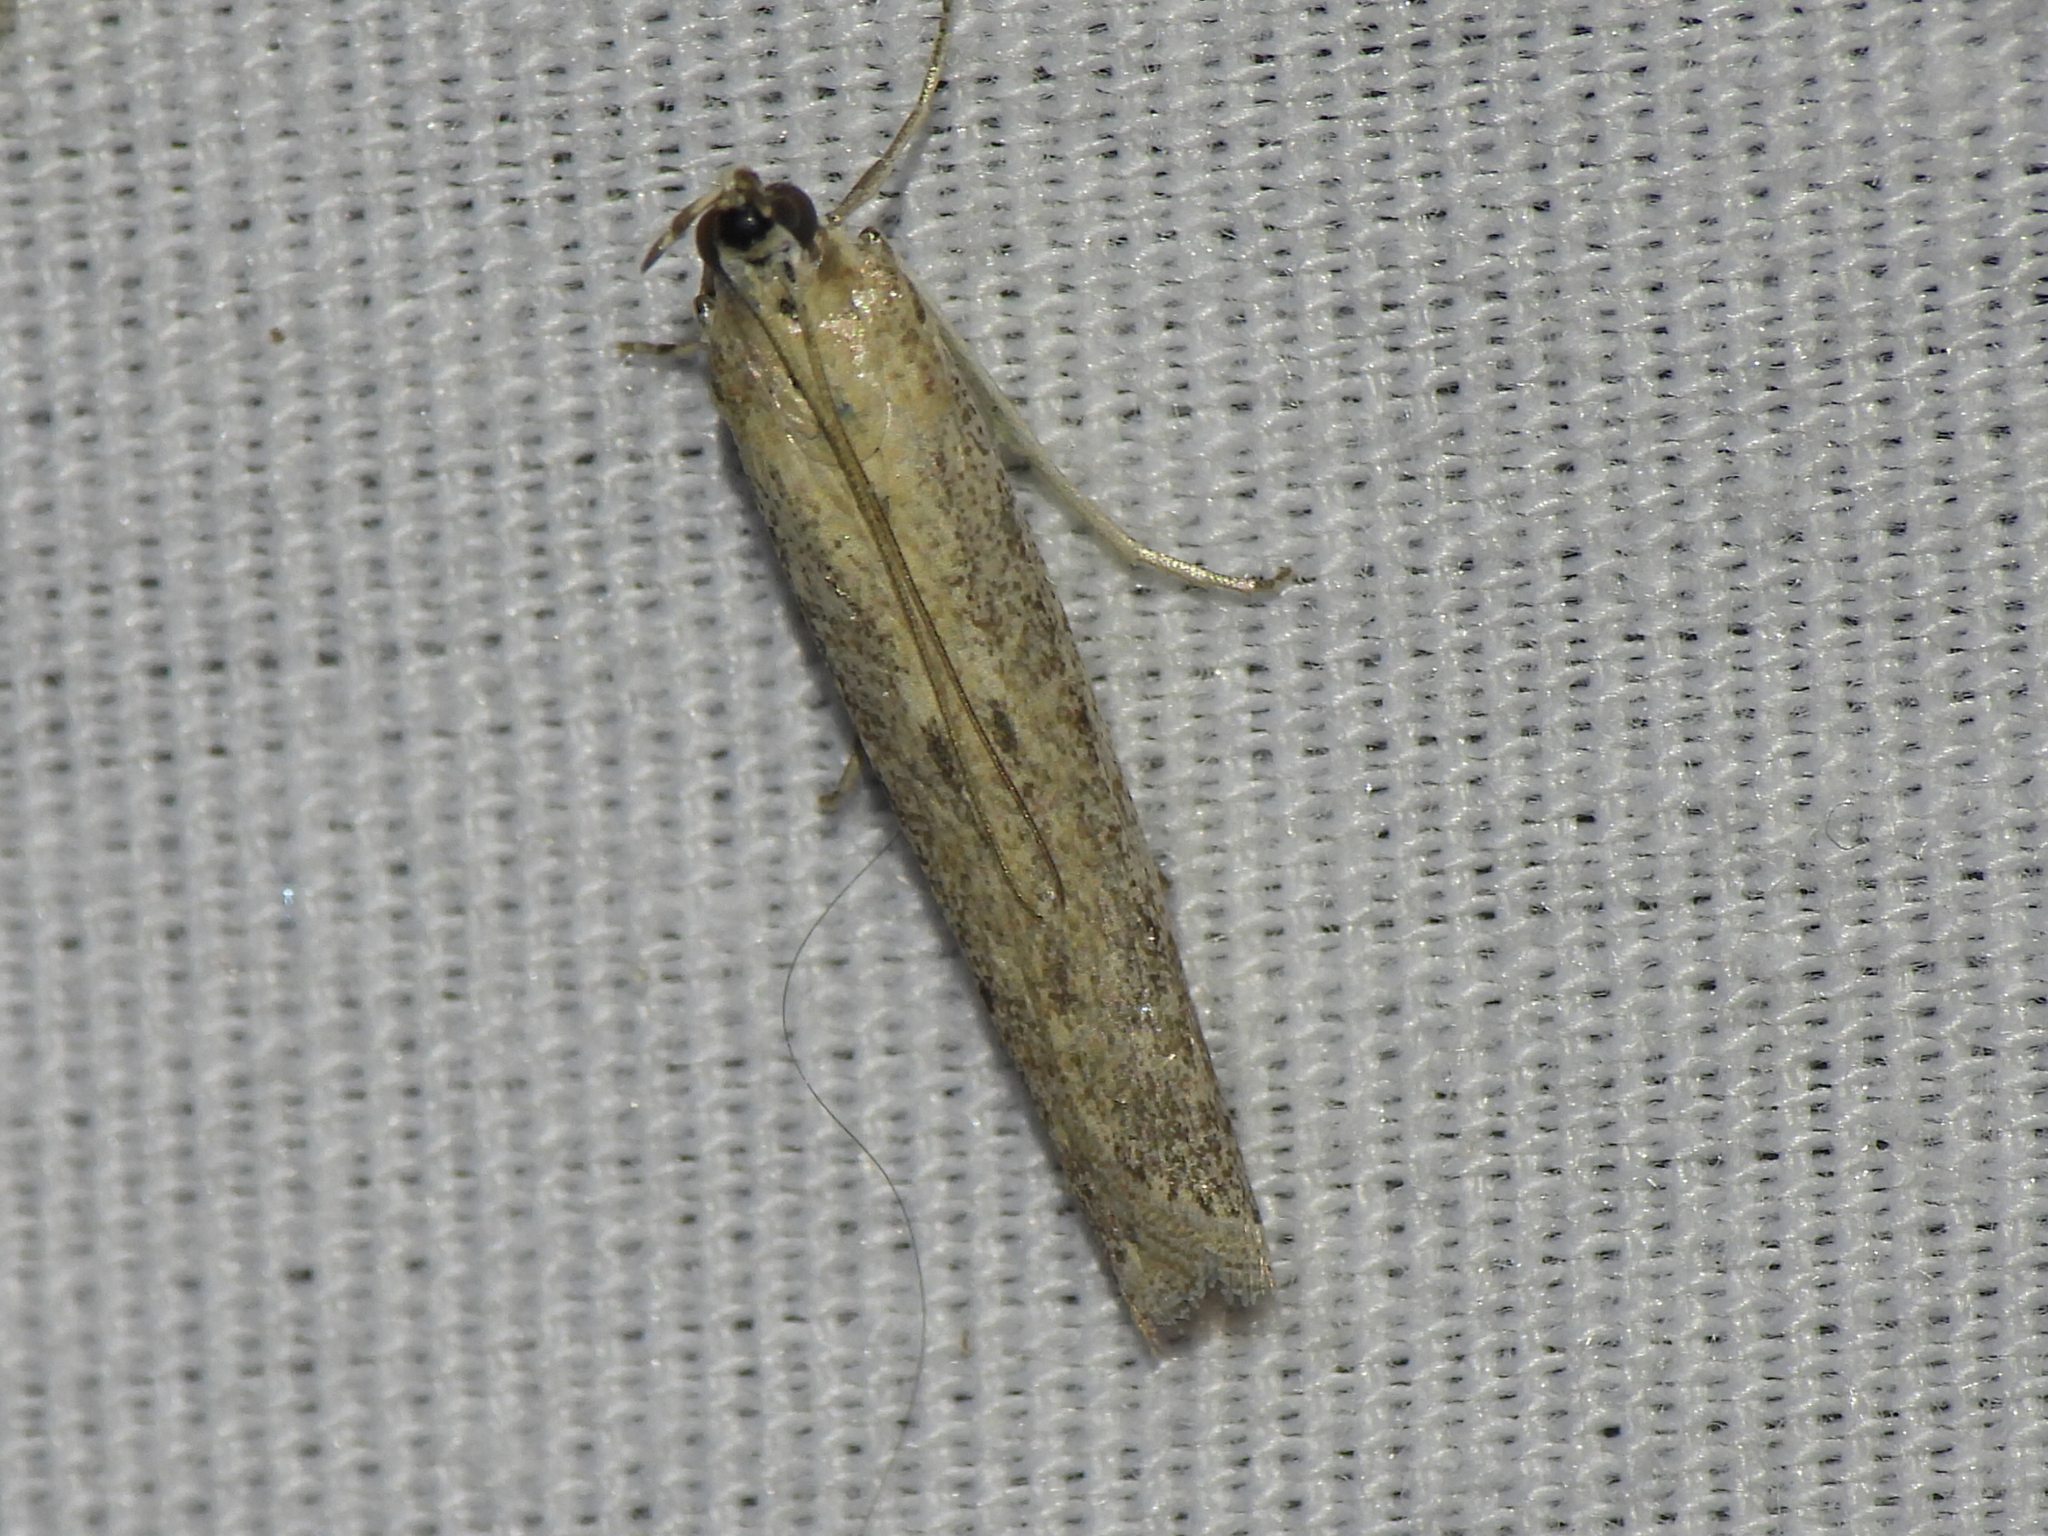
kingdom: Animalia
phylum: Arthropoda
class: Insecta
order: Lepidoptera
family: Pyralidae
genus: Homoeosoma
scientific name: Homoeosoma electella
